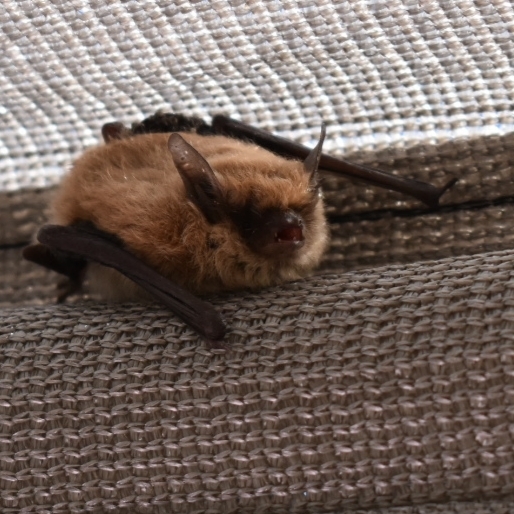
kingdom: Animalia
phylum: Chordata
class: Mammalia
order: Chiroptera
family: Vespertilionidae
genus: Myotis
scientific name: Myotis dinellii
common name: Dinelli's myotis
